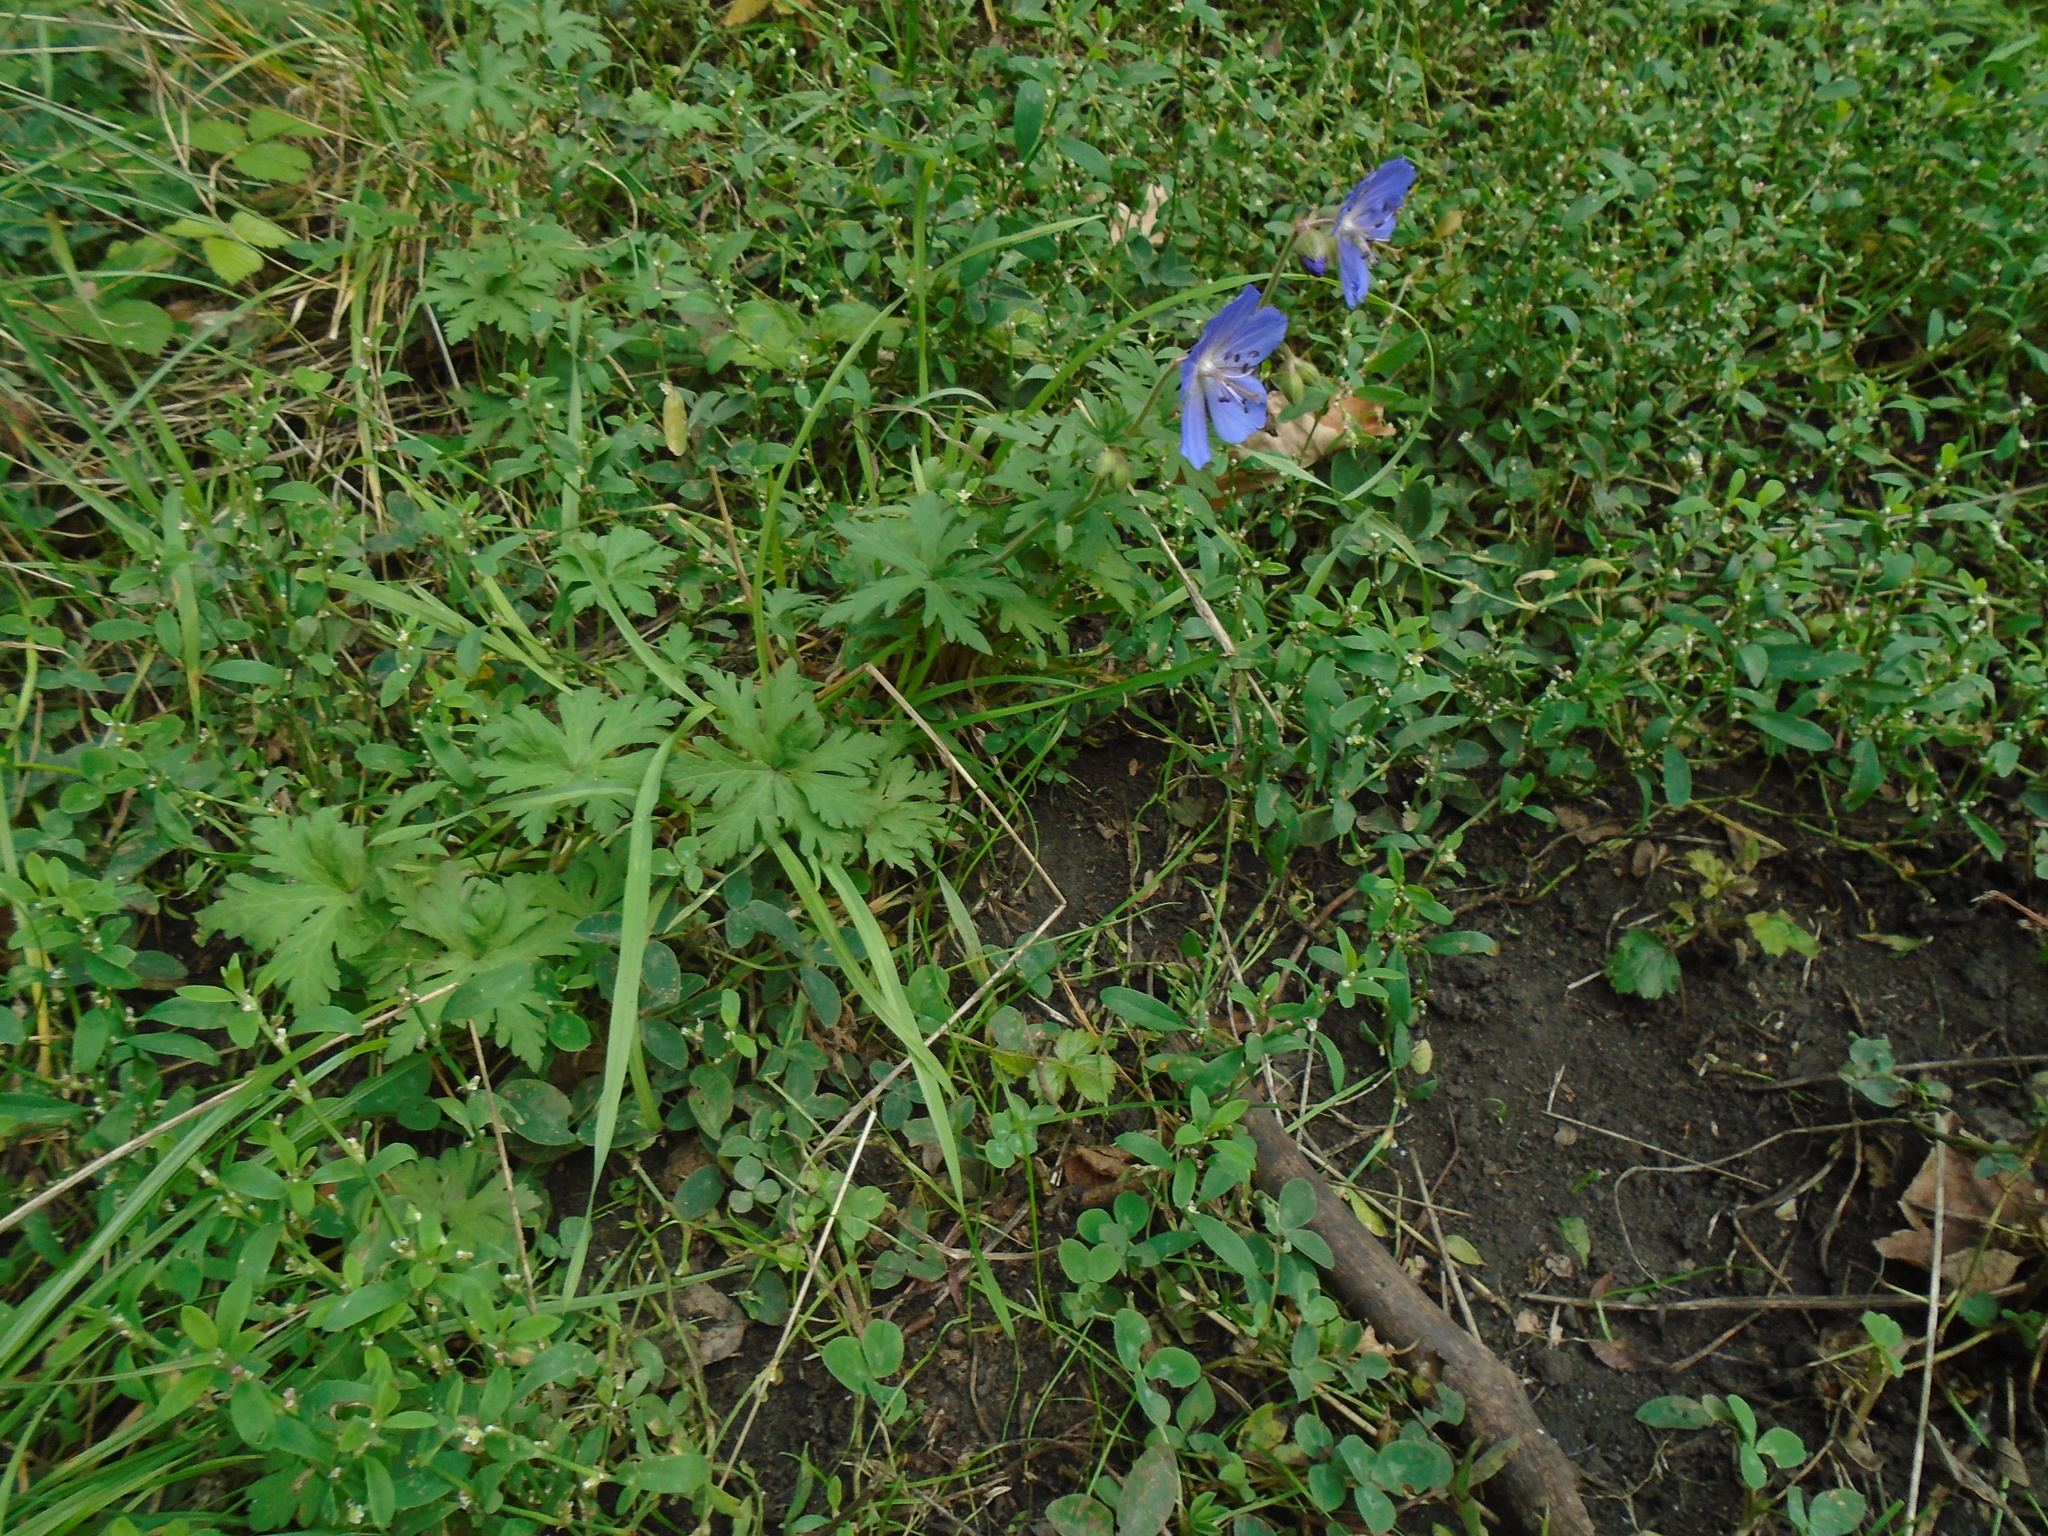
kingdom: Plantae
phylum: Tracheophyta
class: Magnoliopsida
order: Geraniales
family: Geraniaceae
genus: Geranium
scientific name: Geranium pratense
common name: Meadow crane's-bill
